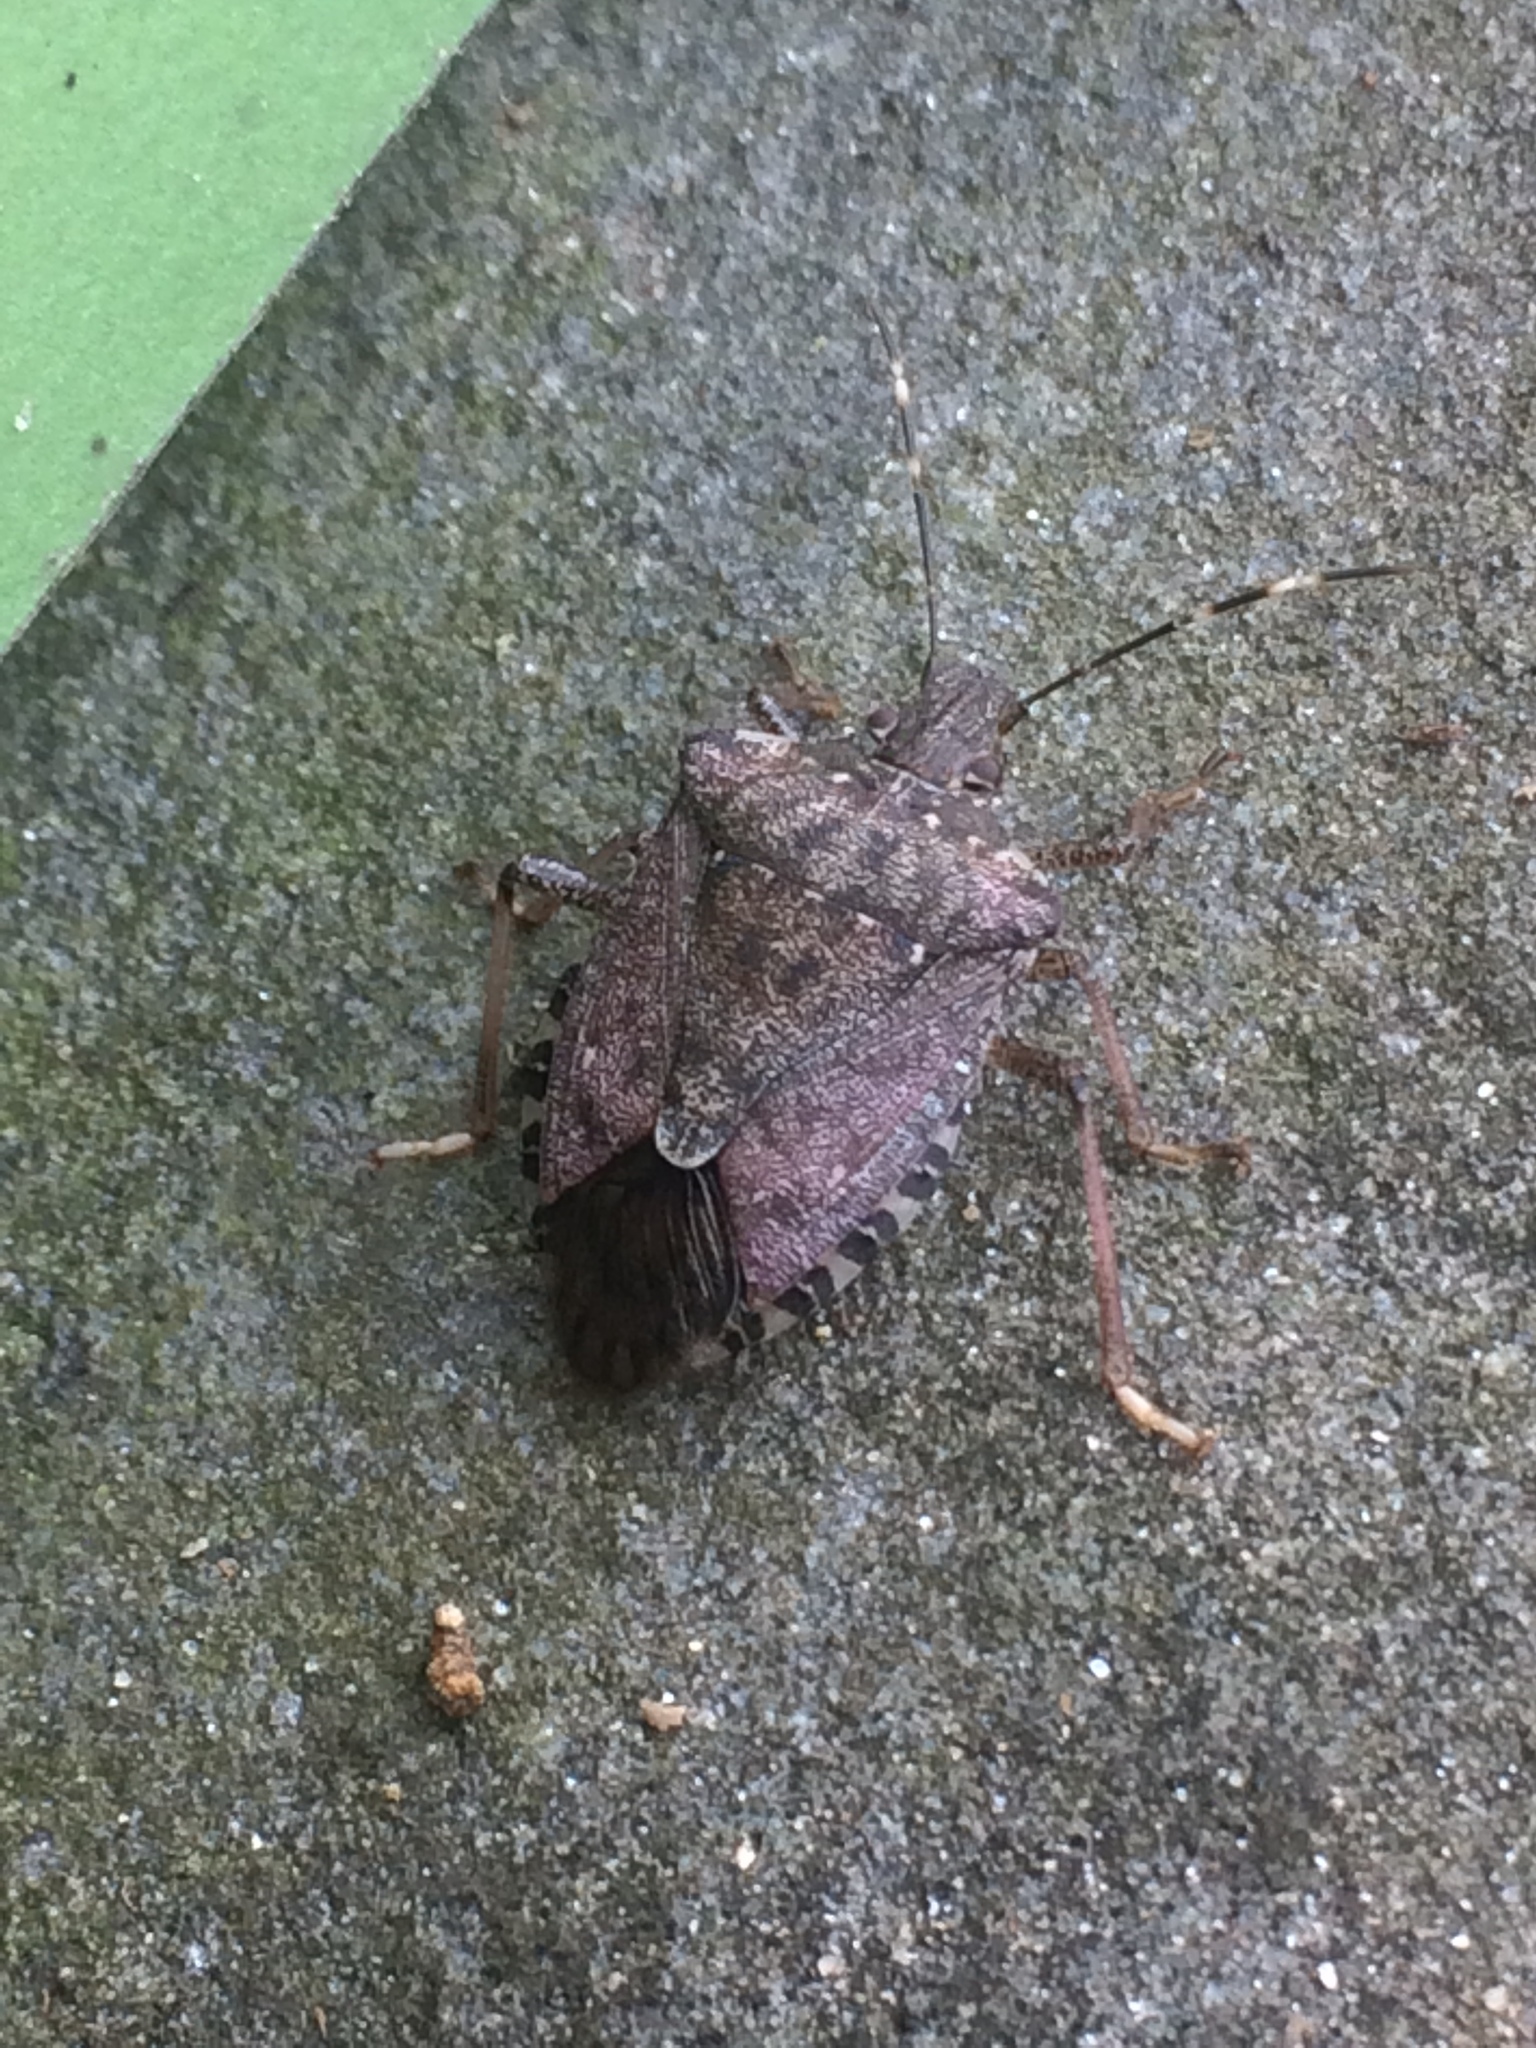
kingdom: Animalia
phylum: Arthropoda
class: Insecta
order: Hemiptera
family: Pentatomidae
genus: Halyomorpha
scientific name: Halyomorpha halys
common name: Brown marmorated stink bug
